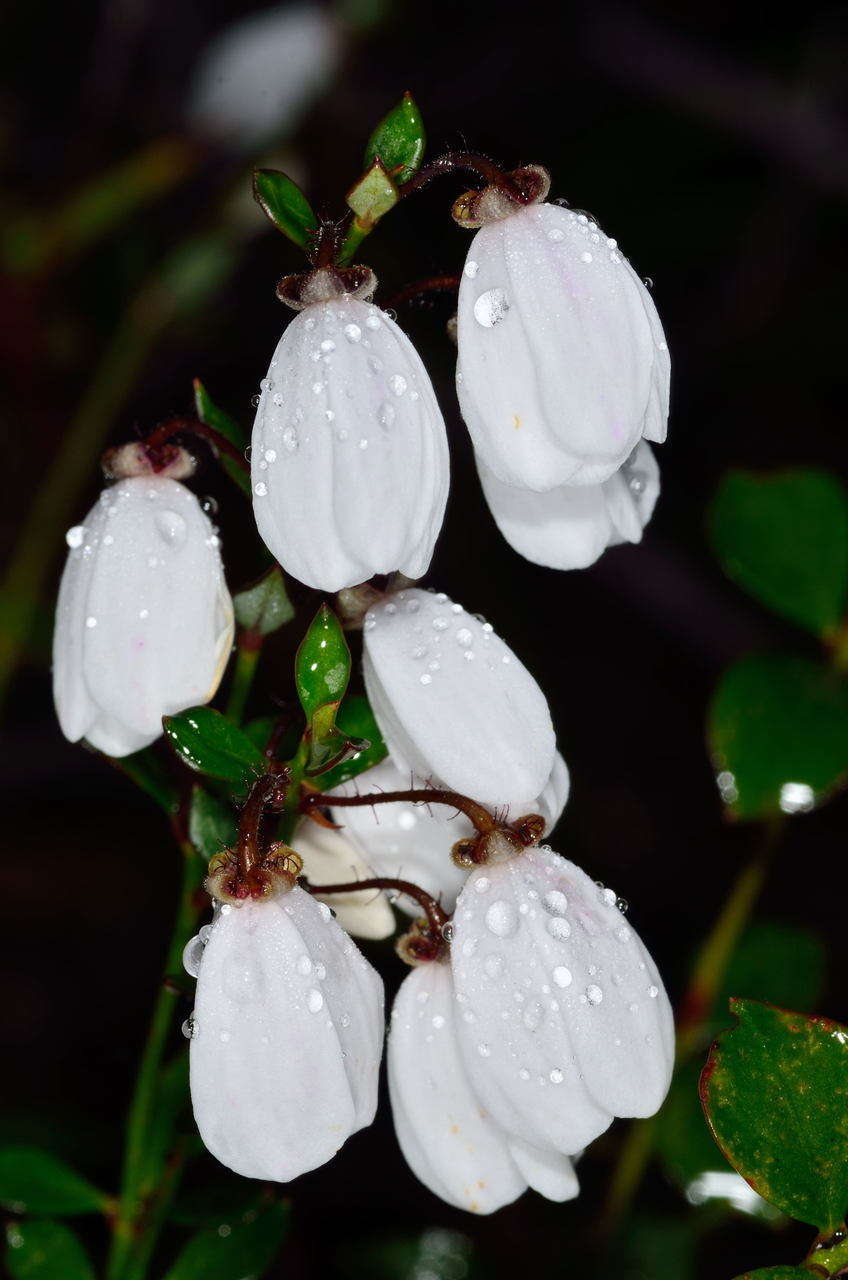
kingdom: Plantae
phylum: Tracheophyta
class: Magnoliopsida
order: Oxalidales
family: Elaeocarpaceae
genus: Tetratheca
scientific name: Tetratheca ciliata
